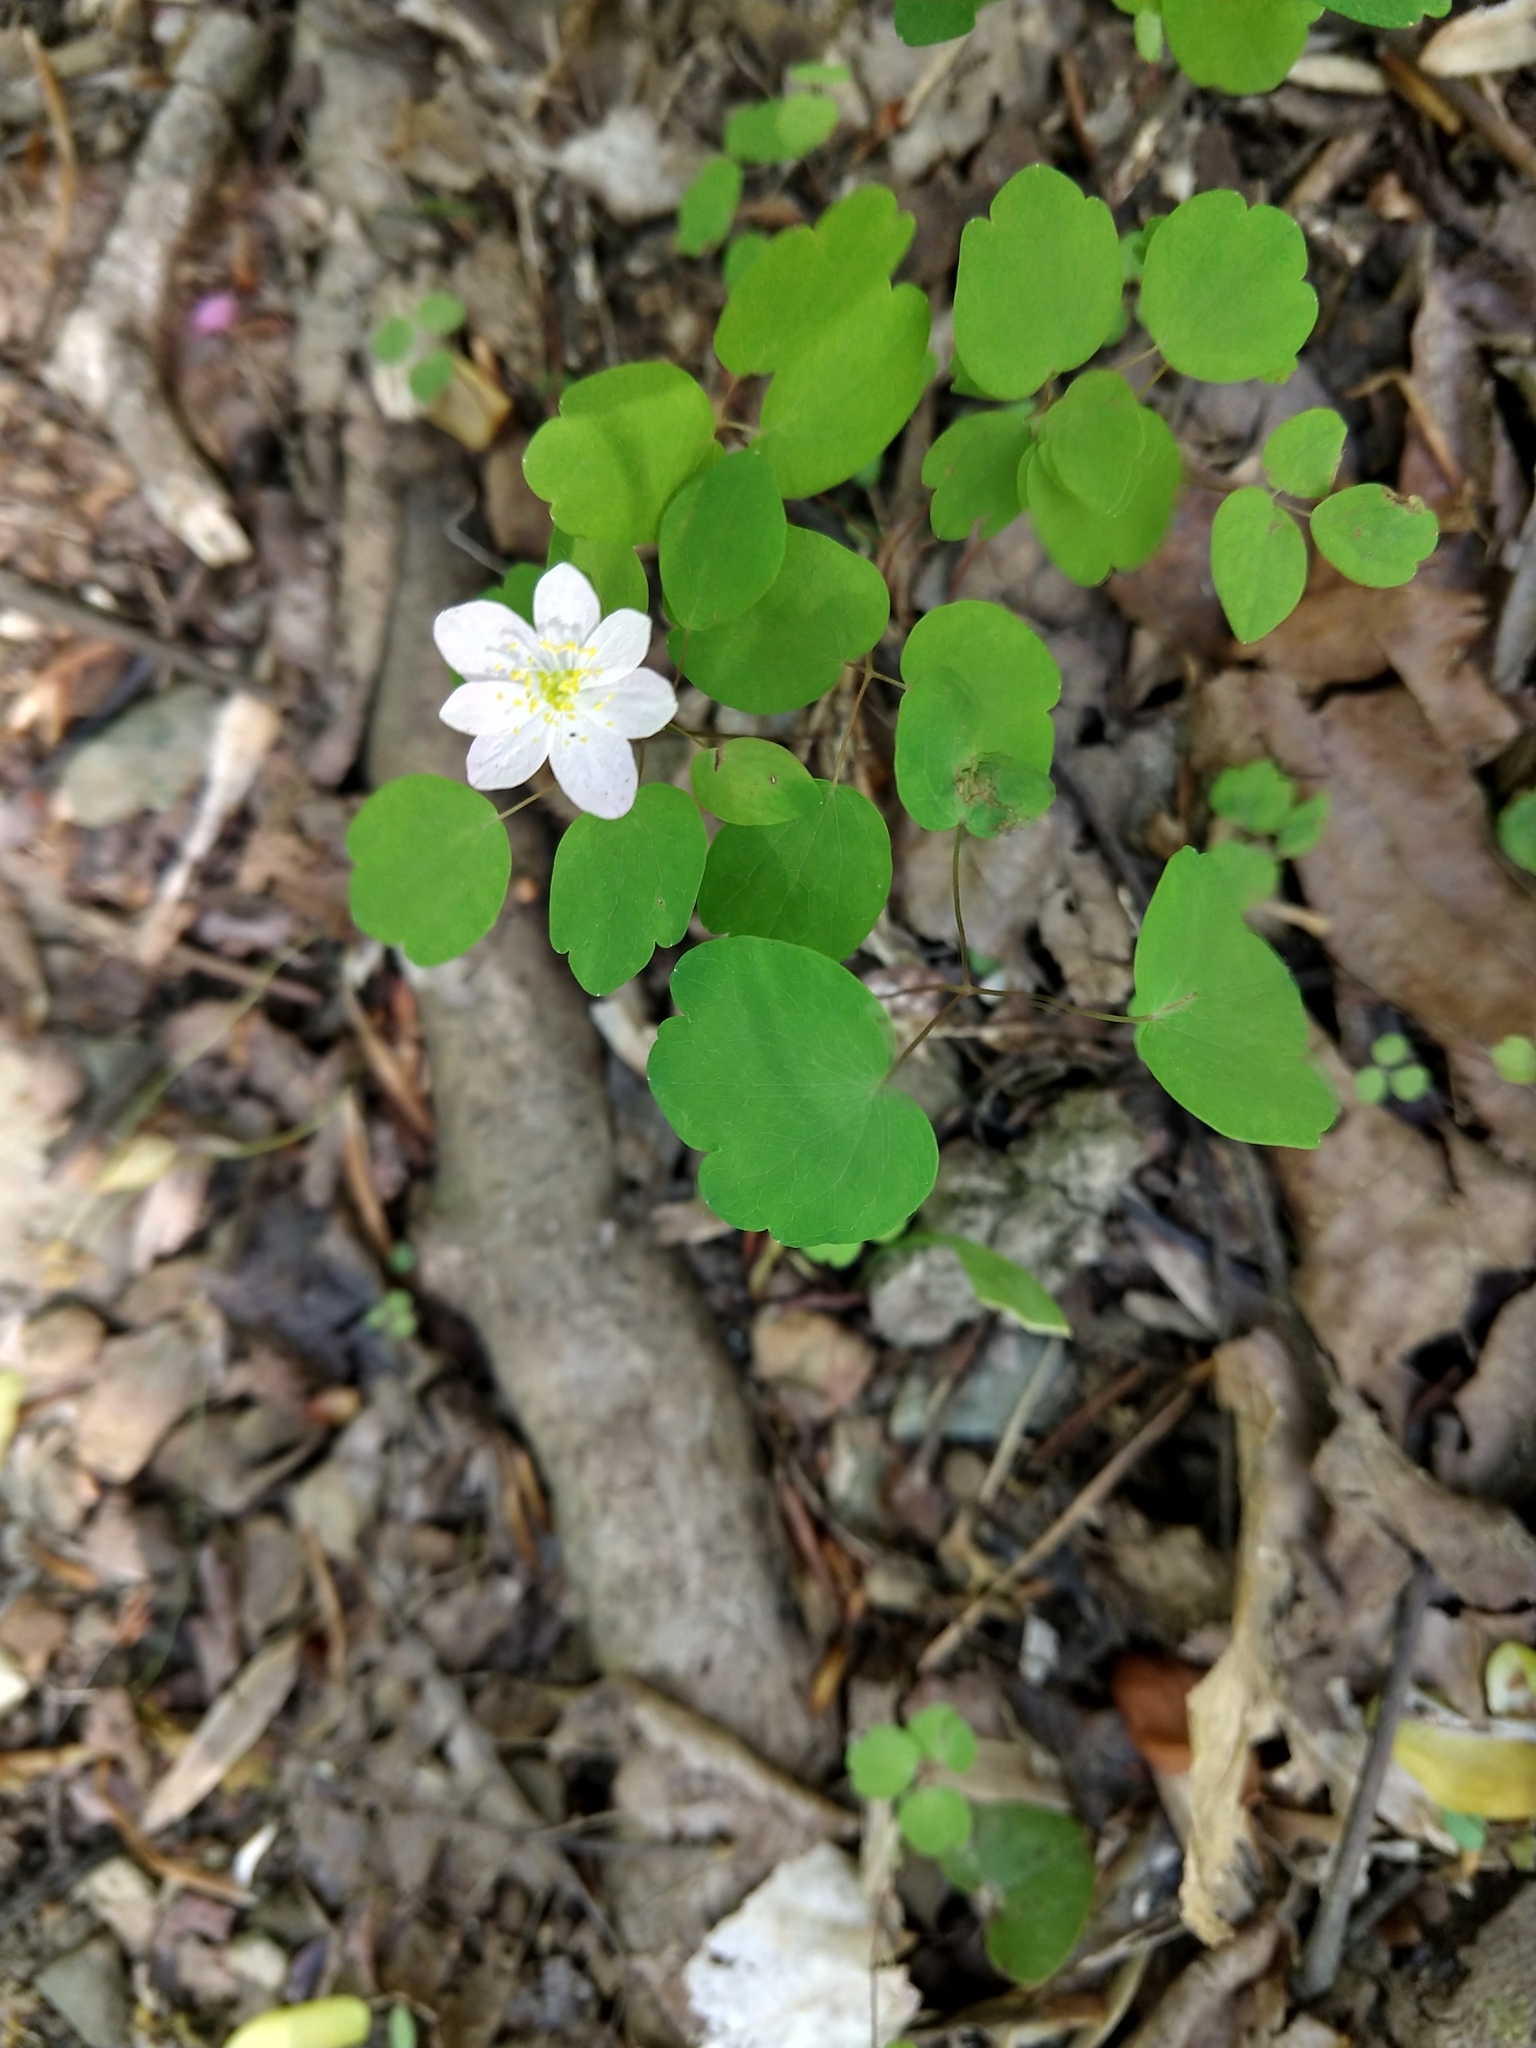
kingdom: Plantae
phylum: Tracheophyta
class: Magnoliopsida
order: Ranunculales
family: Ranunculaceae
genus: Thalictrum
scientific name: Thalictrum thalictroides
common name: Rue-anemone
